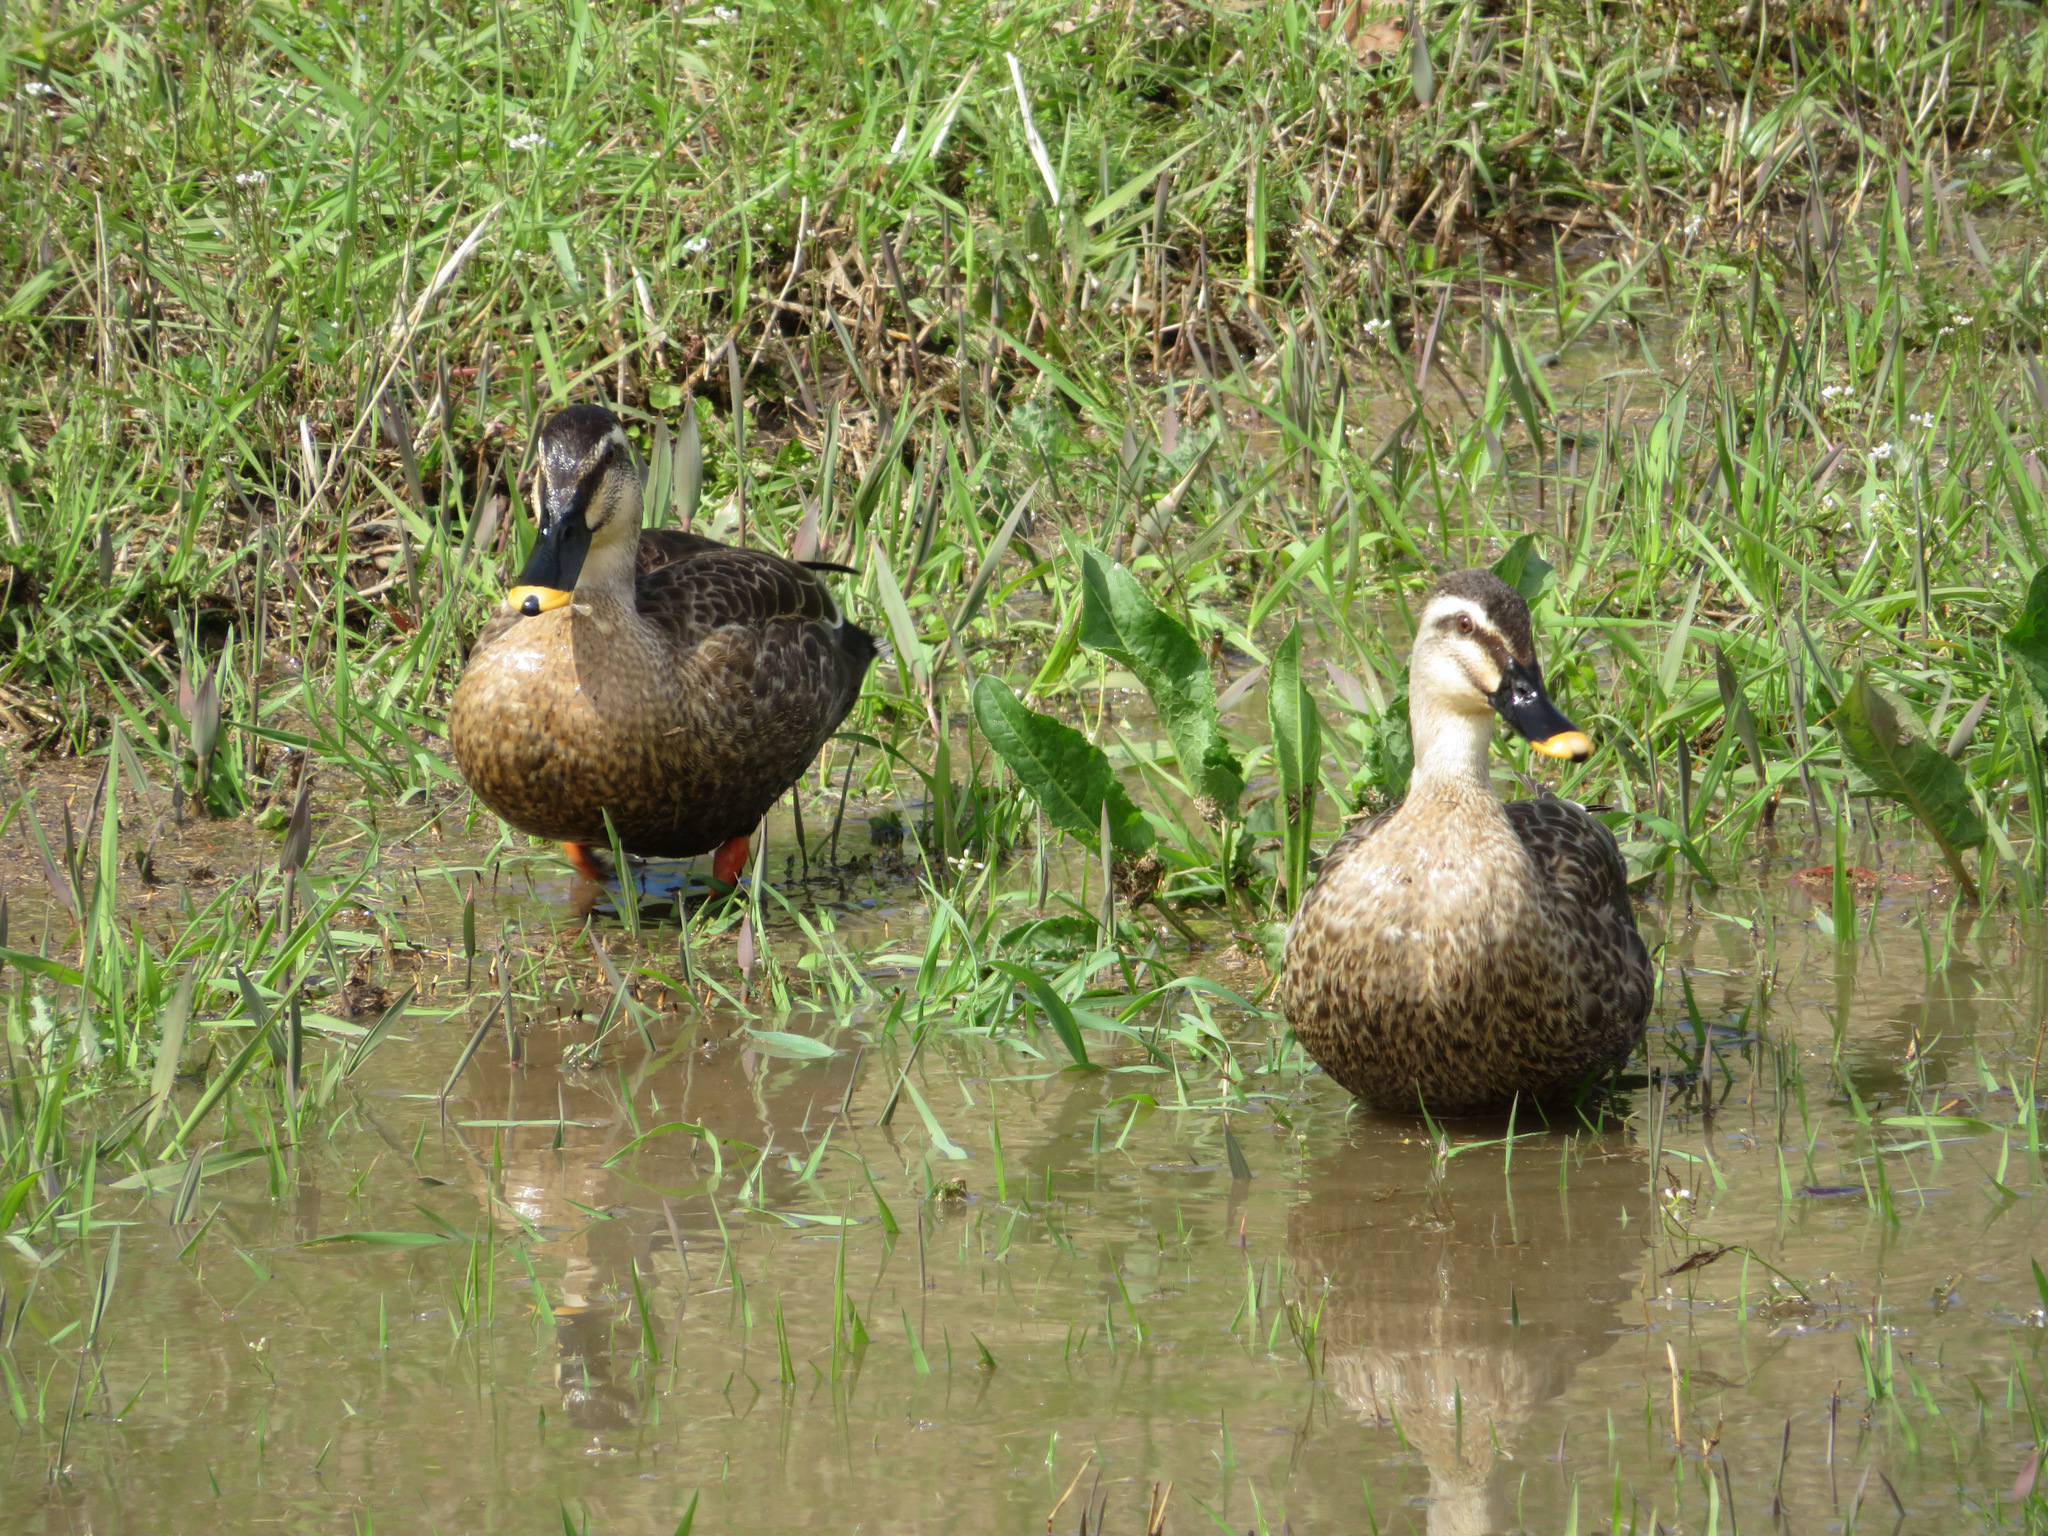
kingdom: Animalia
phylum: Chordata
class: Aves
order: Anseriformes
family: Anatidae
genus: Anas
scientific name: Anas zonorhyncha
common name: Eastern spot-billed duck
